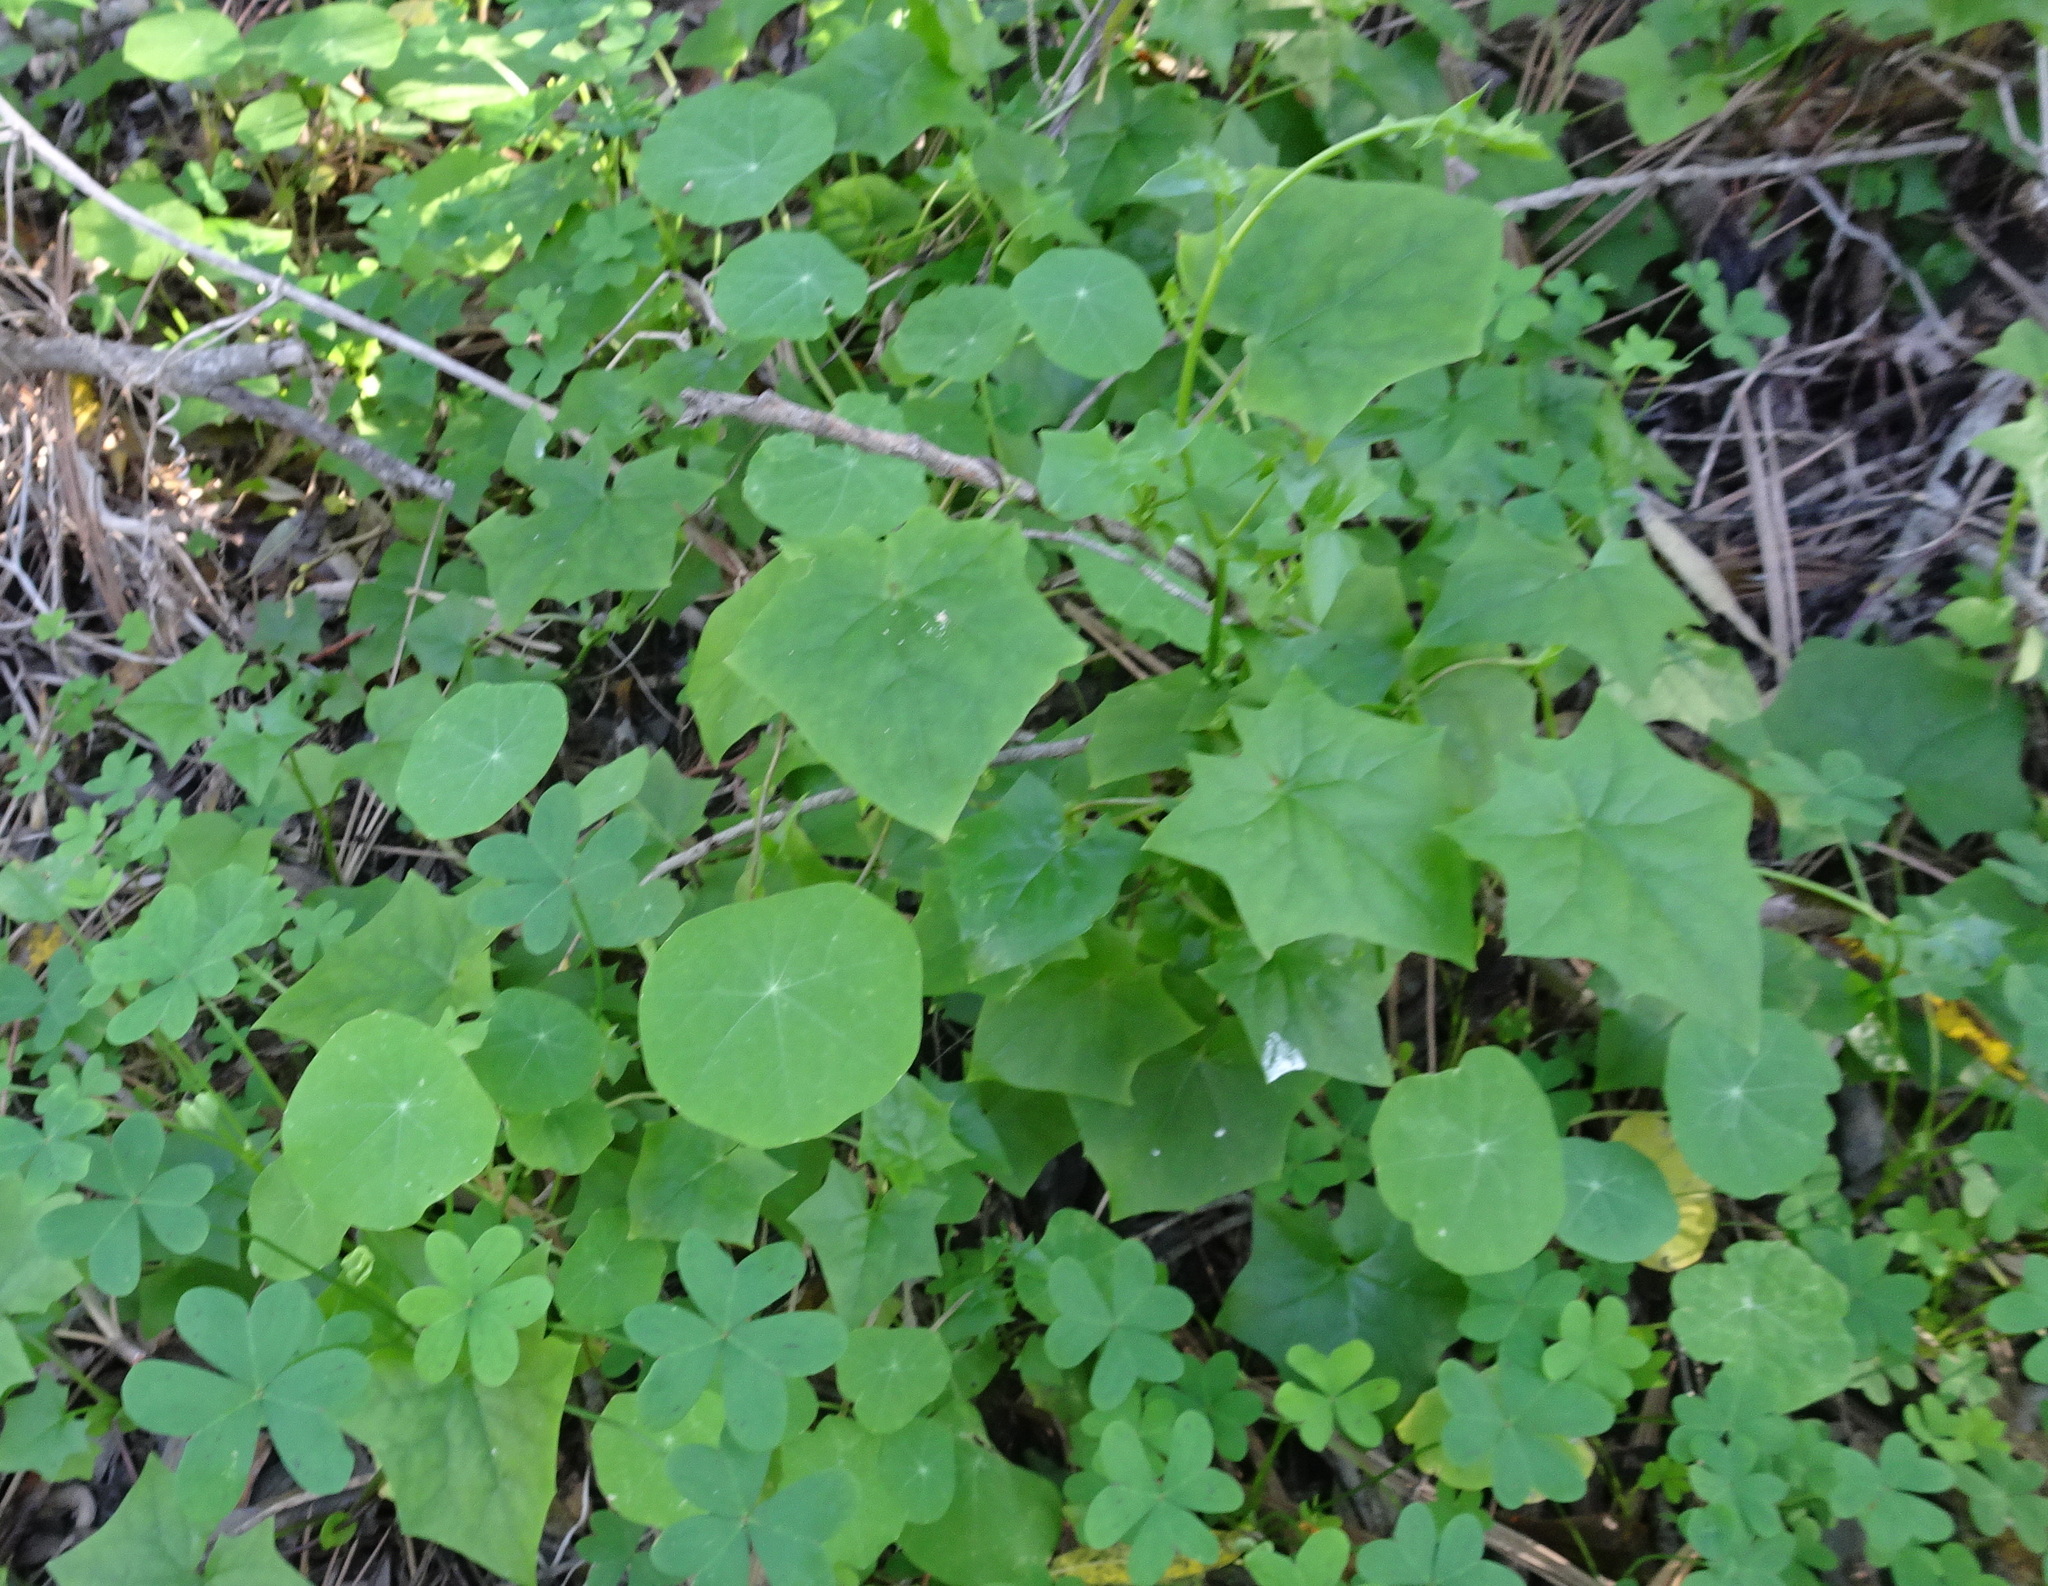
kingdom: Plantae
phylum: Tracheophyta
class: Magnoliopsida
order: Brassicales
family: Tropaeolaceae
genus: Tropaeolum
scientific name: Tropaeolum majus
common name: Nasturtium
